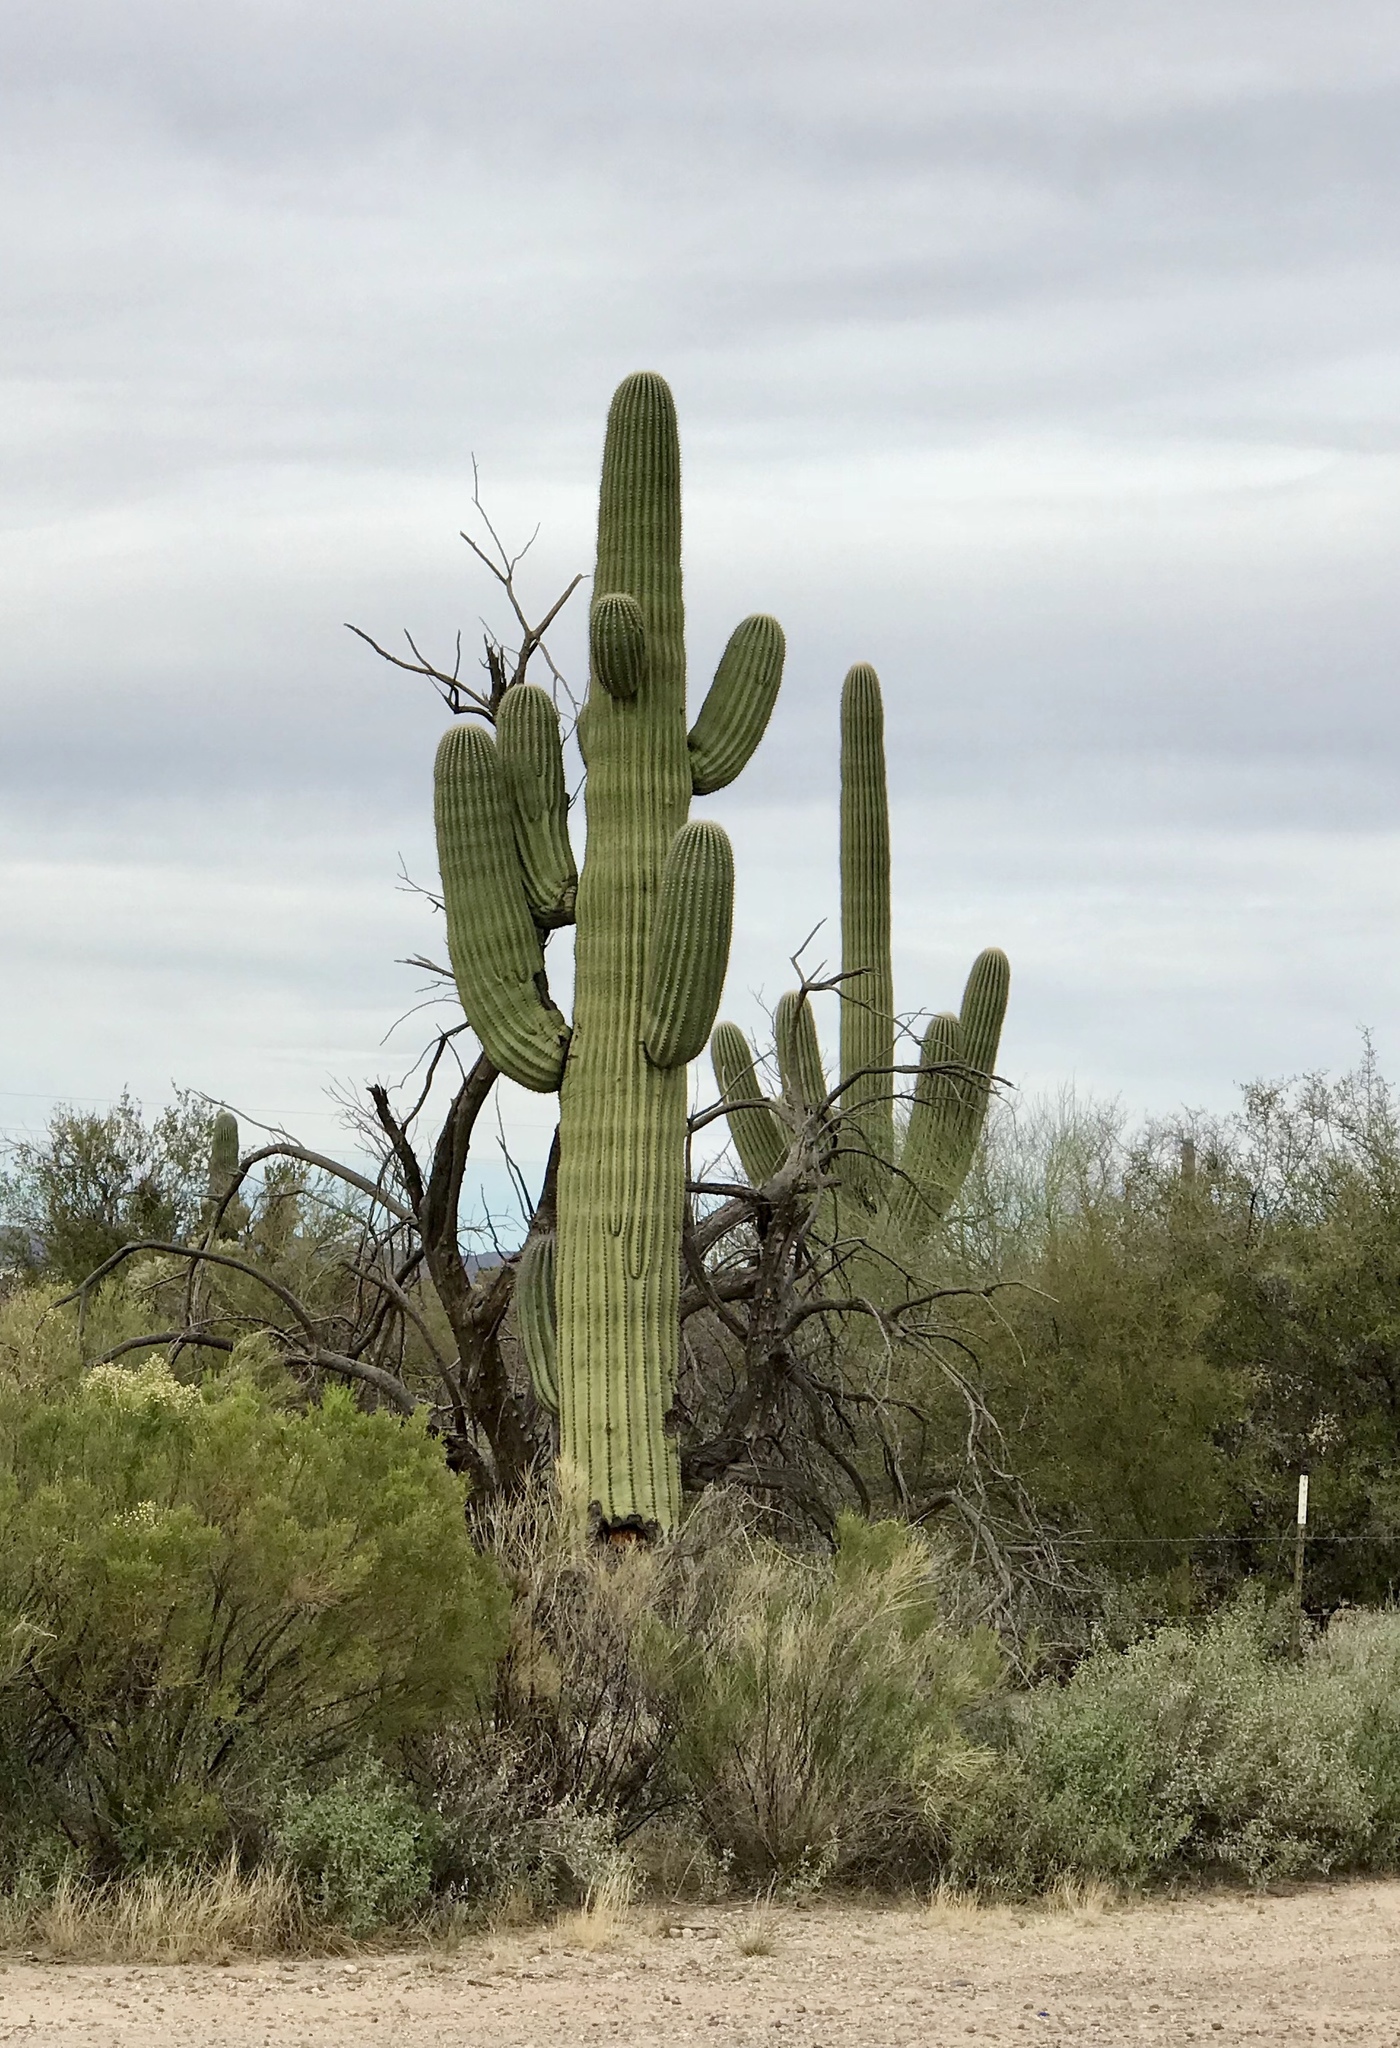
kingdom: Plantae
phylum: Tracheophyta
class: Magnoliopsida
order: Caryophyllales
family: Cactaceae
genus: Carnegiea
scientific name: Carnegiea gigantea
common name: Saguaro
